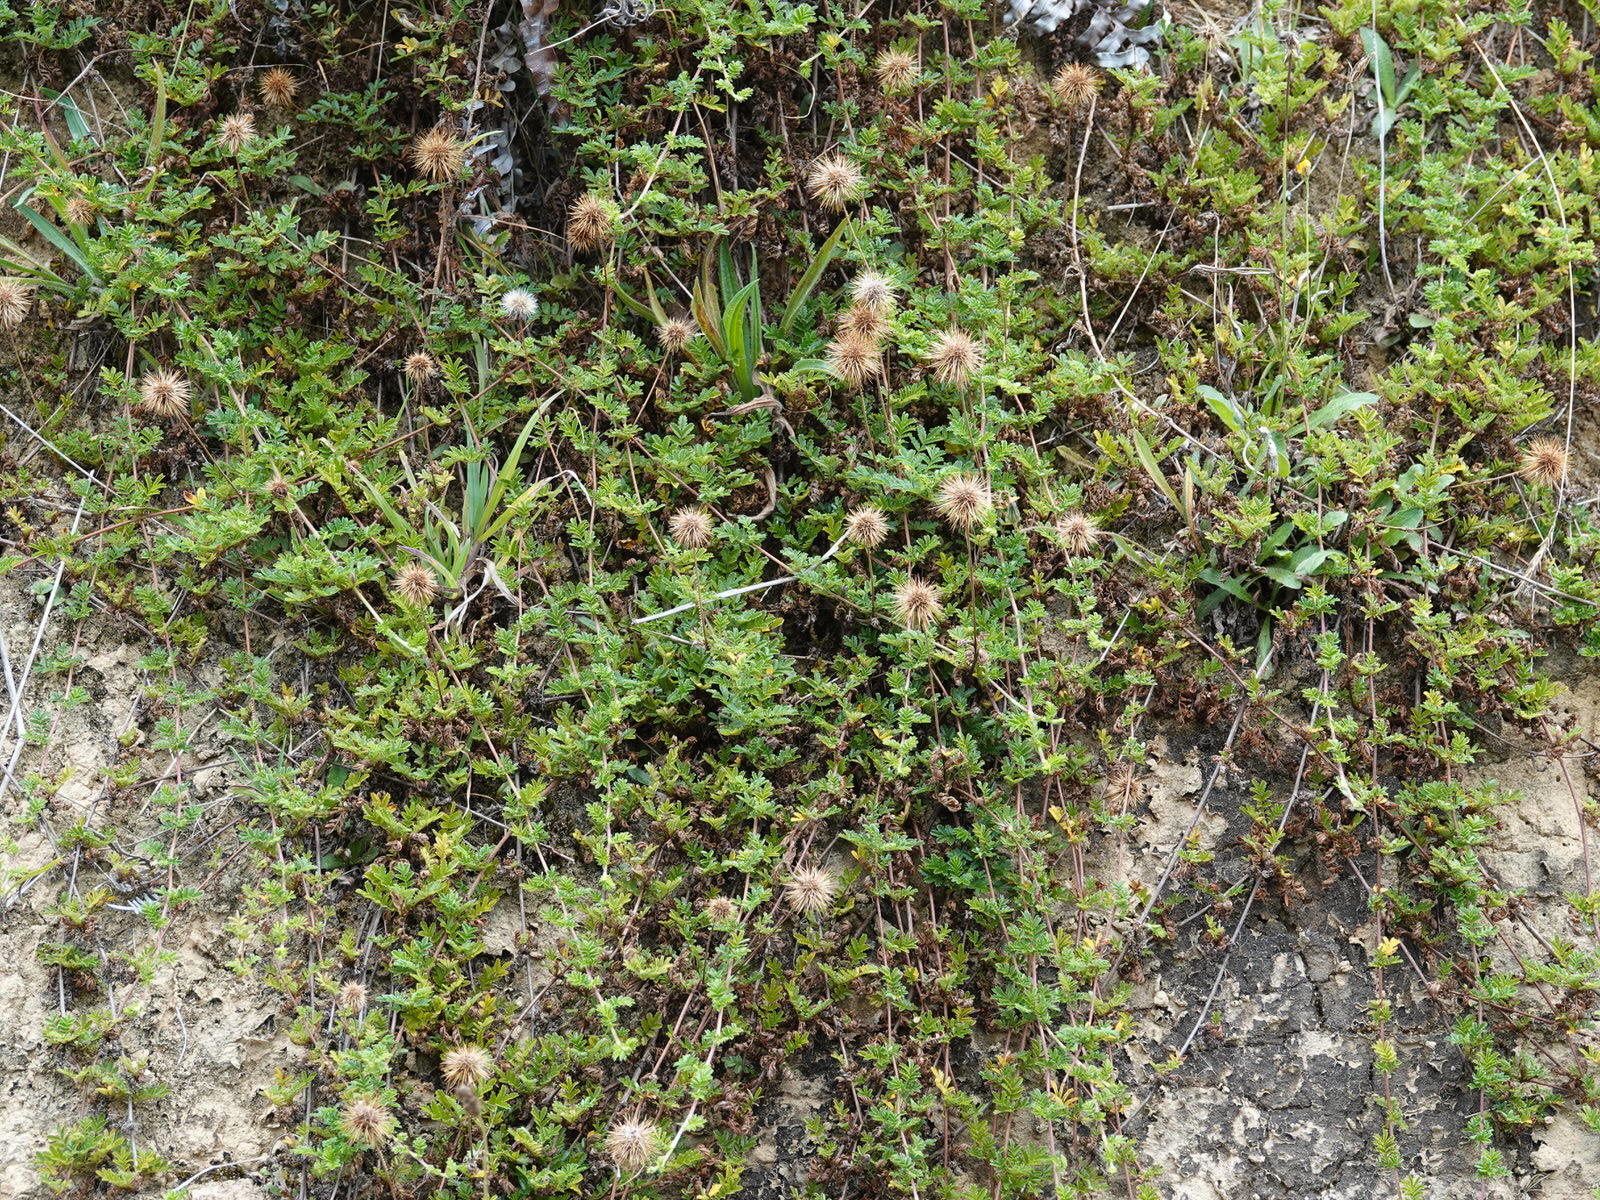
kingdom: Plantae
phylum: Tracheophyta
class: Magnoliopsida
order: Rosales
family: Rosaceae
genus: Acaena
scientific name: Acaena novae-zelandiae
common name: Pirri-pirri-bur
